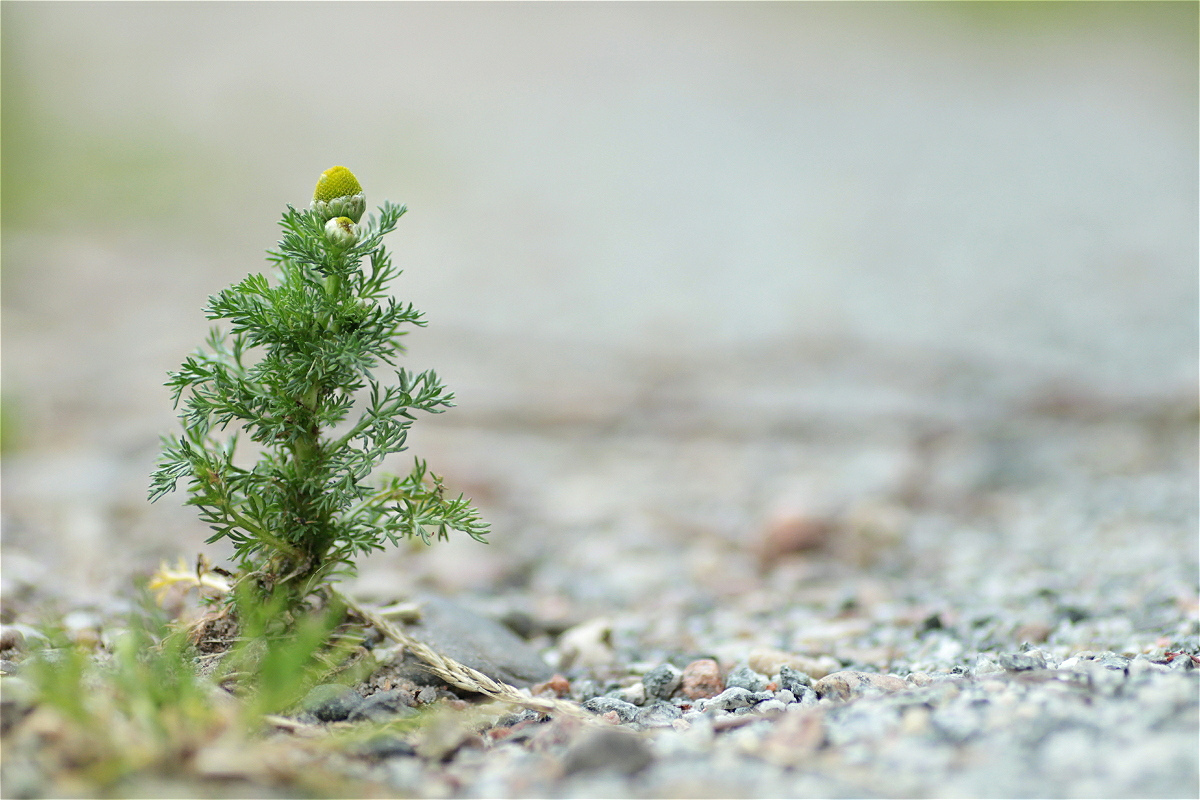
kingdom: Plantae
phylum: Tracheophyta
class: Magnoliopsida
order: Asterales
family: Asteraceae
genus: Matricaria
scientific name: Matricaria discoidea
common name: Disc mayweed
